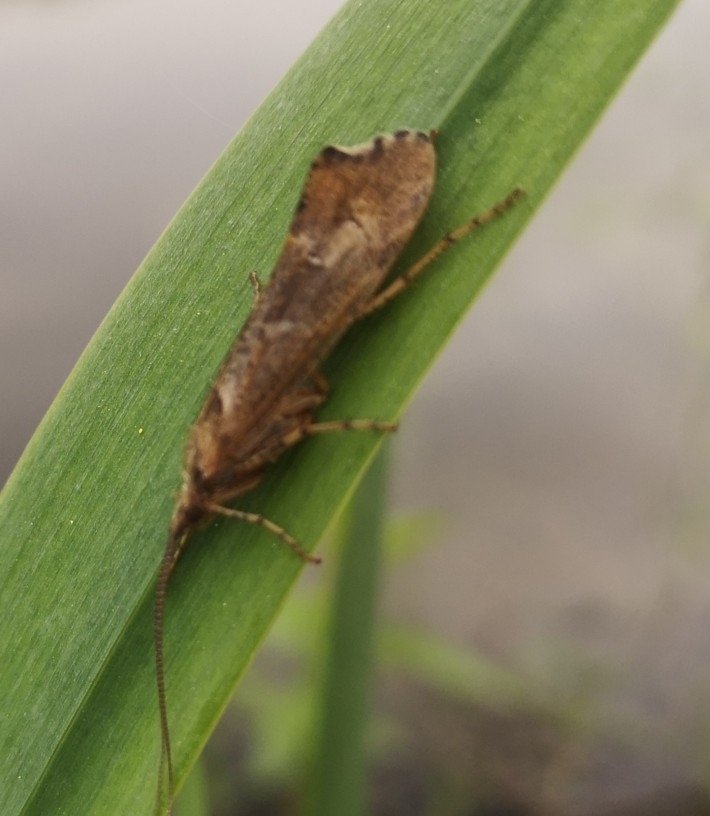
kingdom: Animalia
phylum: Arthropoda
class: Insecta
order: Trichoptera
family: Limnephilidae
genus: Glyphotaelius
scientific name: Glyphotaelius pellucidus
